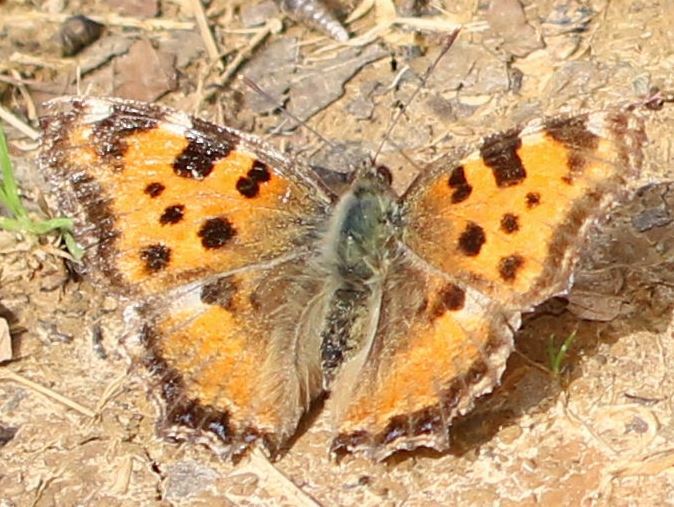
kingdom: Animalia
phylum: Arthropoda
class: Insecta
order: Lepidoptera
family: Nymphalidae
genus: Nymphalis
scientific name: Nymphalis polychloros
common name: Large tortoiseshell
